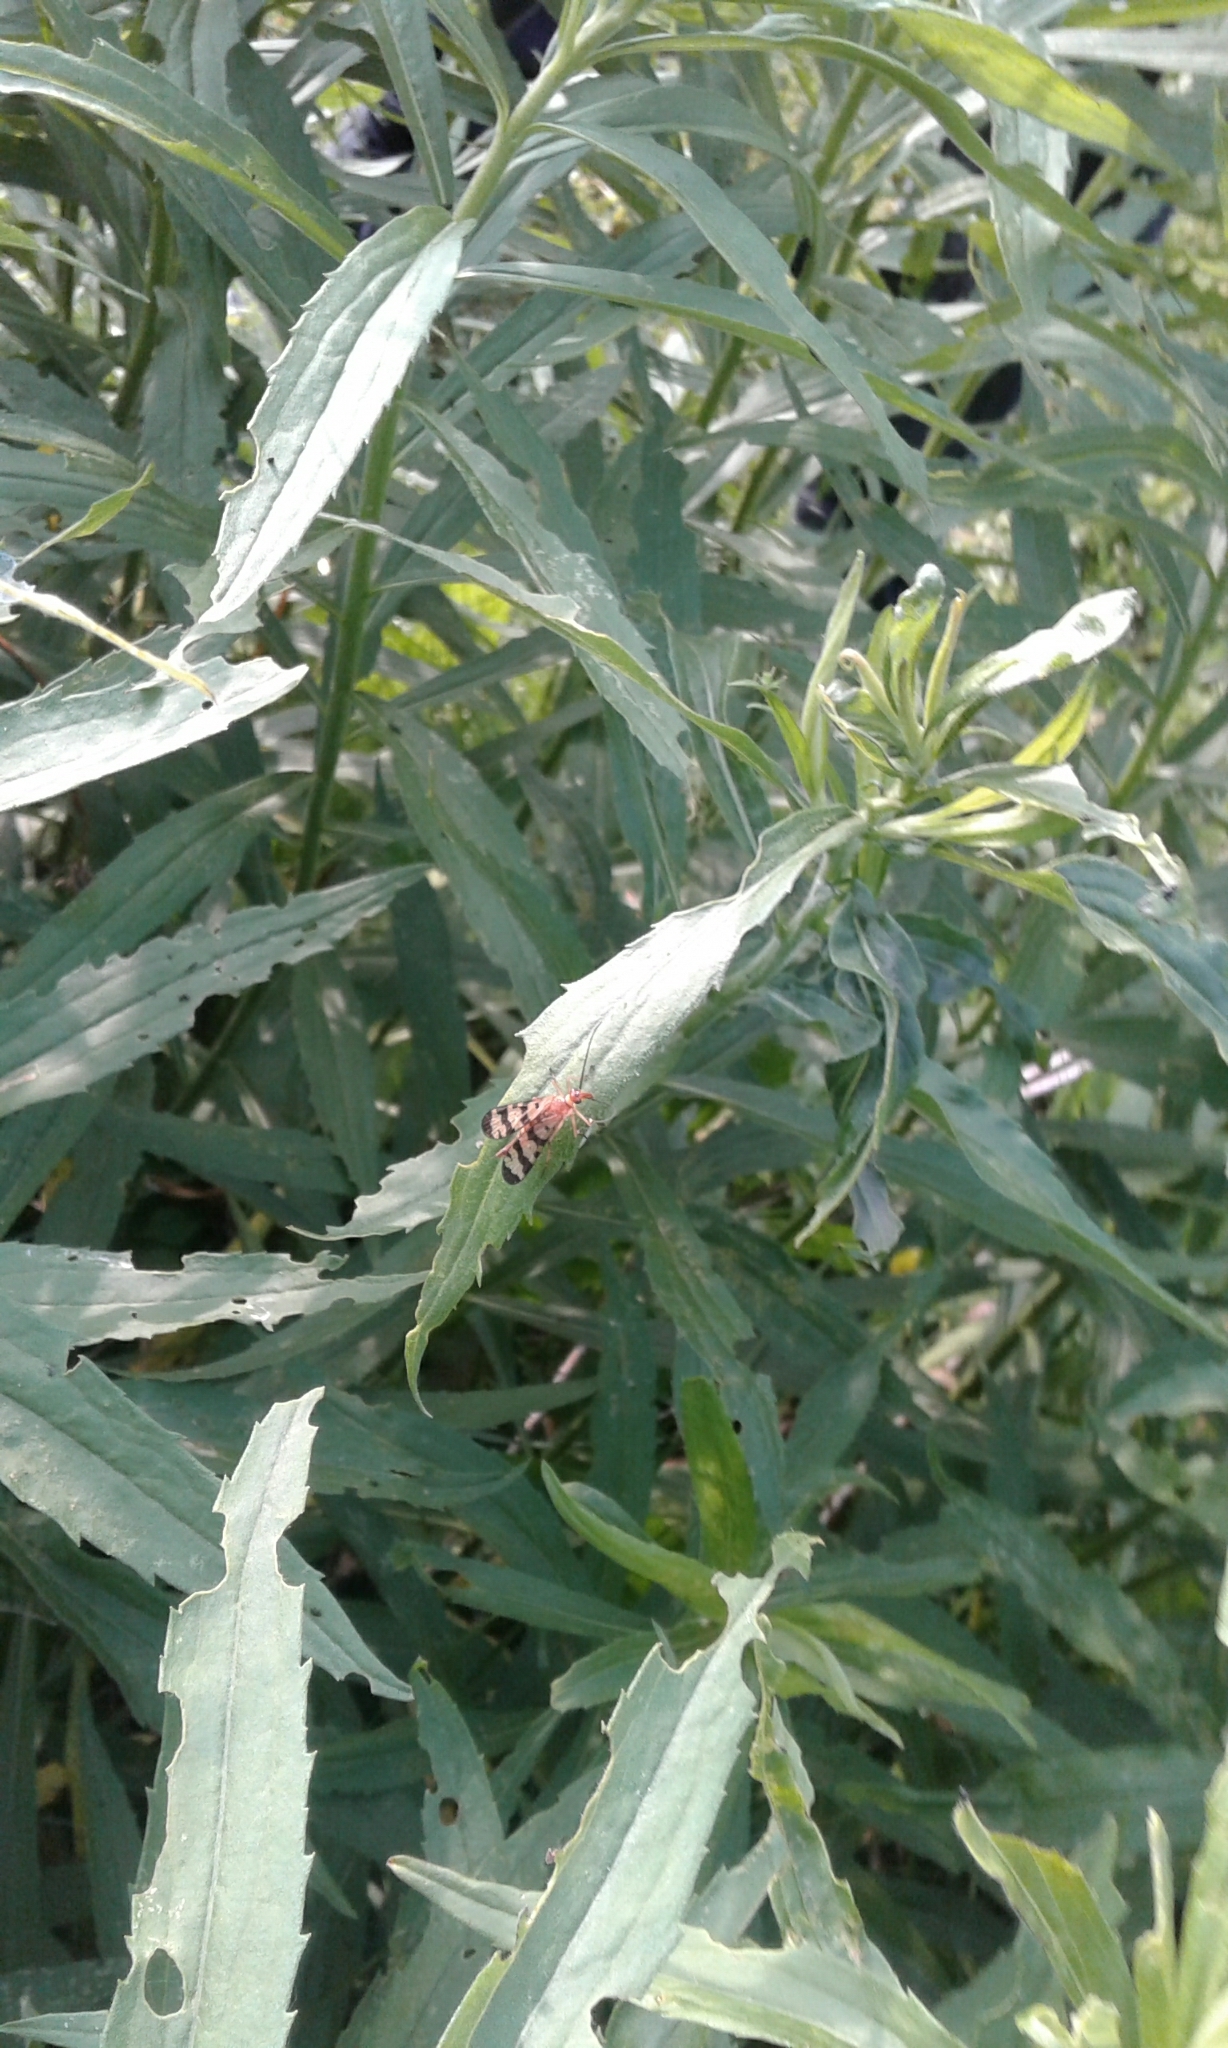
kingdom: Animalia
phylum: Arthropoda
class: Insecta
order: Mecoptera
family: Panorpidae
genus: Panorpa
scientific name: Panorpa subfurcata
